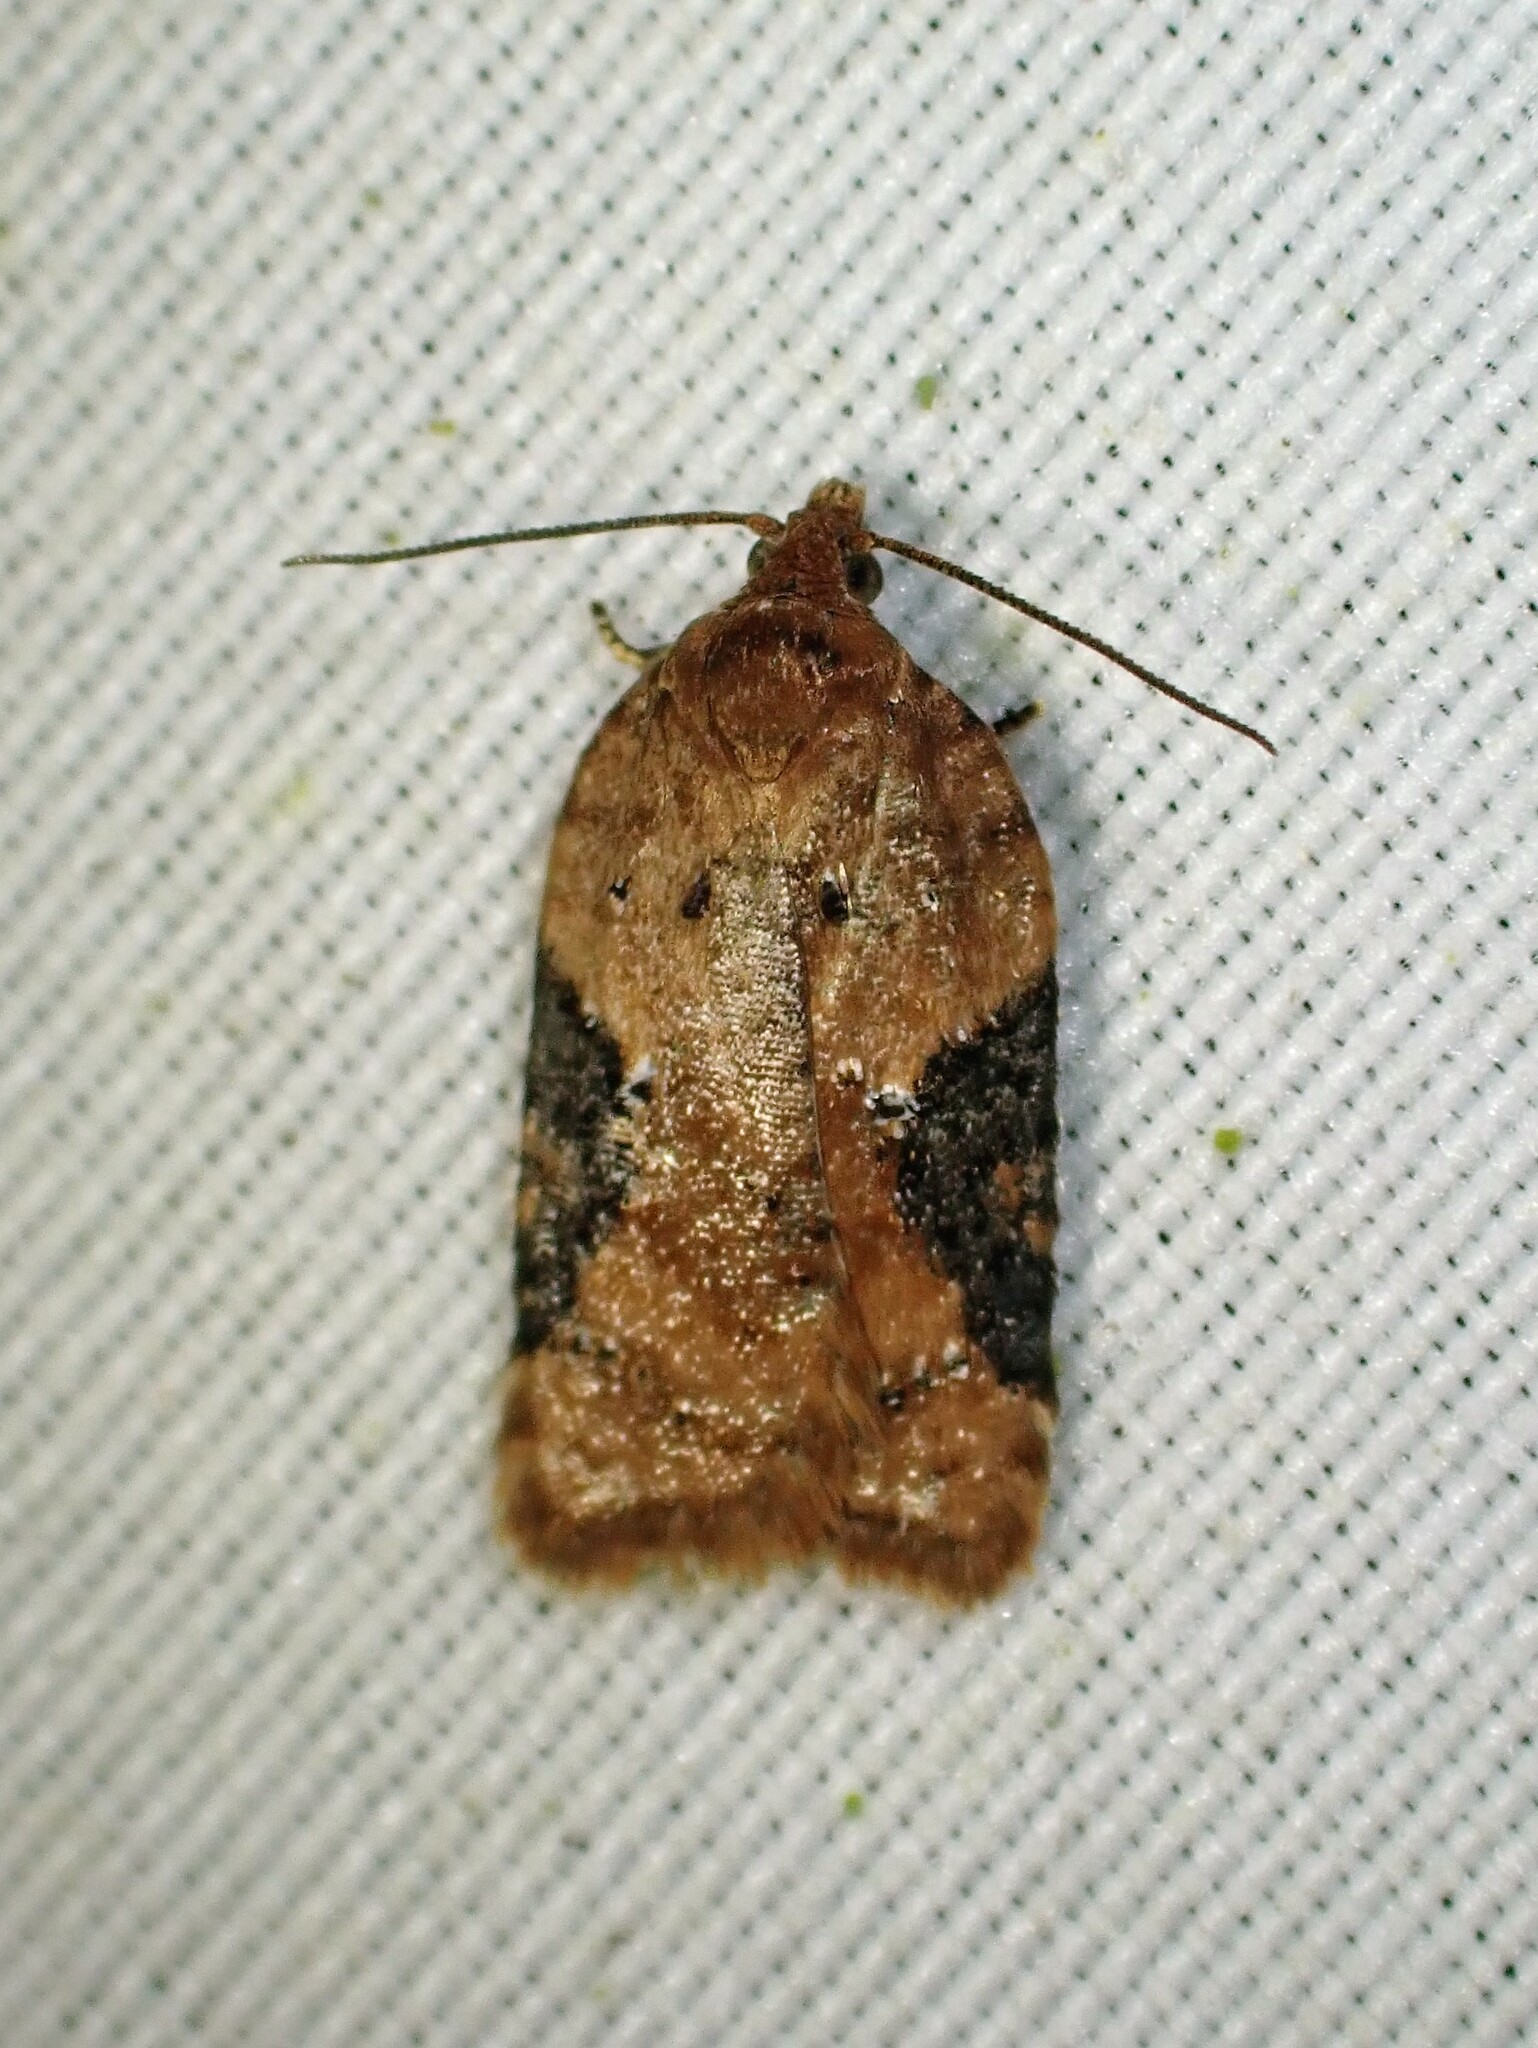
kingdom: Animalia
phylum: Arthropoda
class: Insecta
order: Lepidoptera
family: Tortricidae
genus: Acleris
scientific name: Acleris braunana
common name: Alder leafroller
